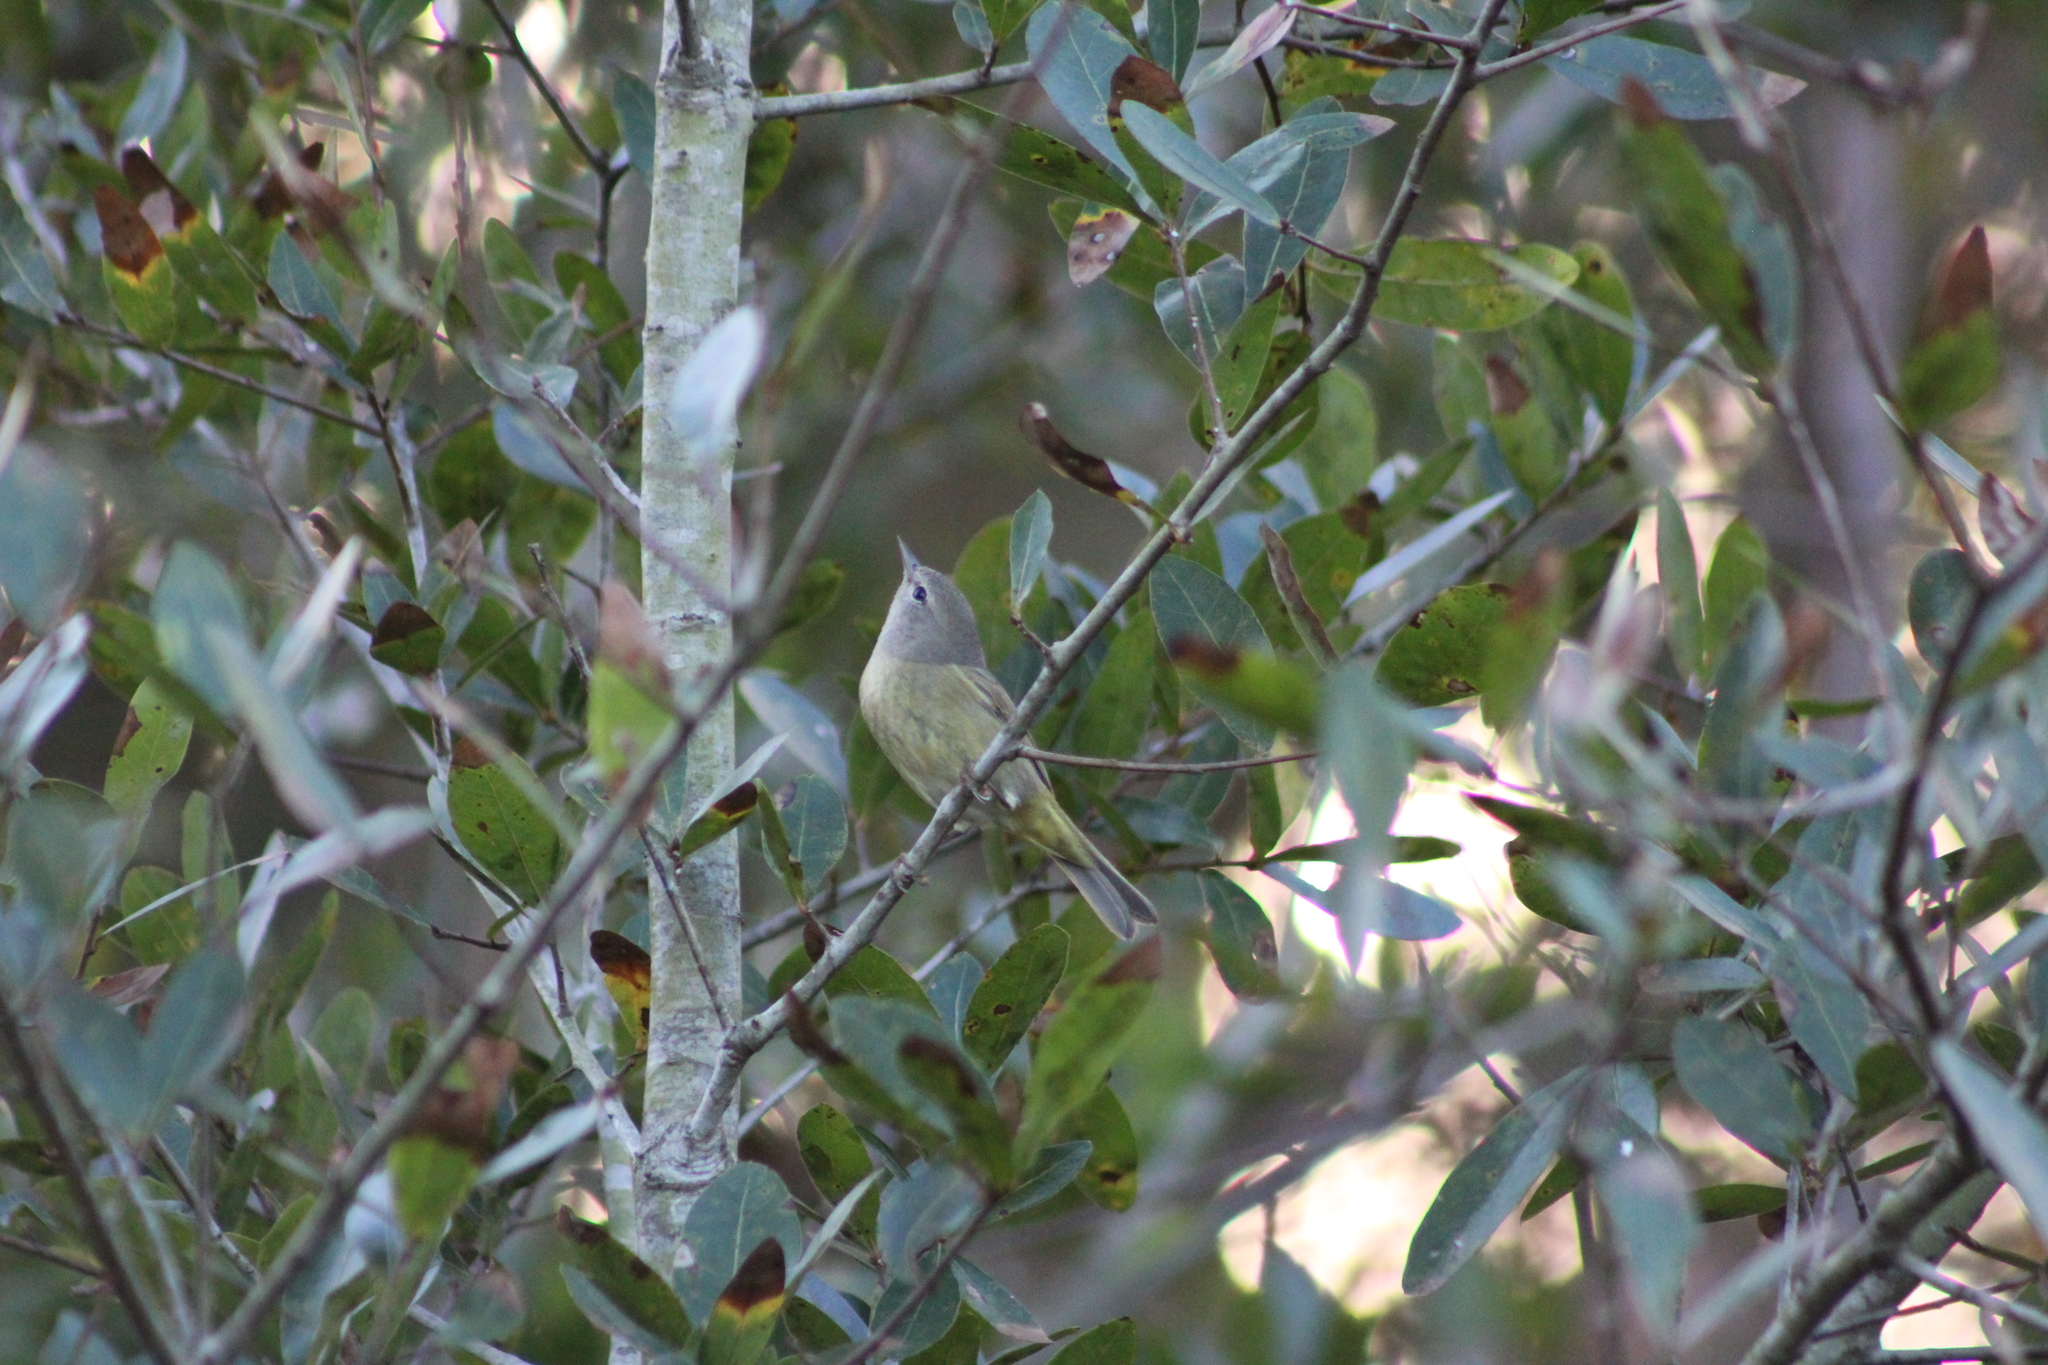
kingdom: Animalia
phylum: Chordata
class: Aves
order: Passeriformes
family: Parulidae
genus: Leiothlypis
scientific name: Leiothlypis celata
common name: Orange-crowned warbler
